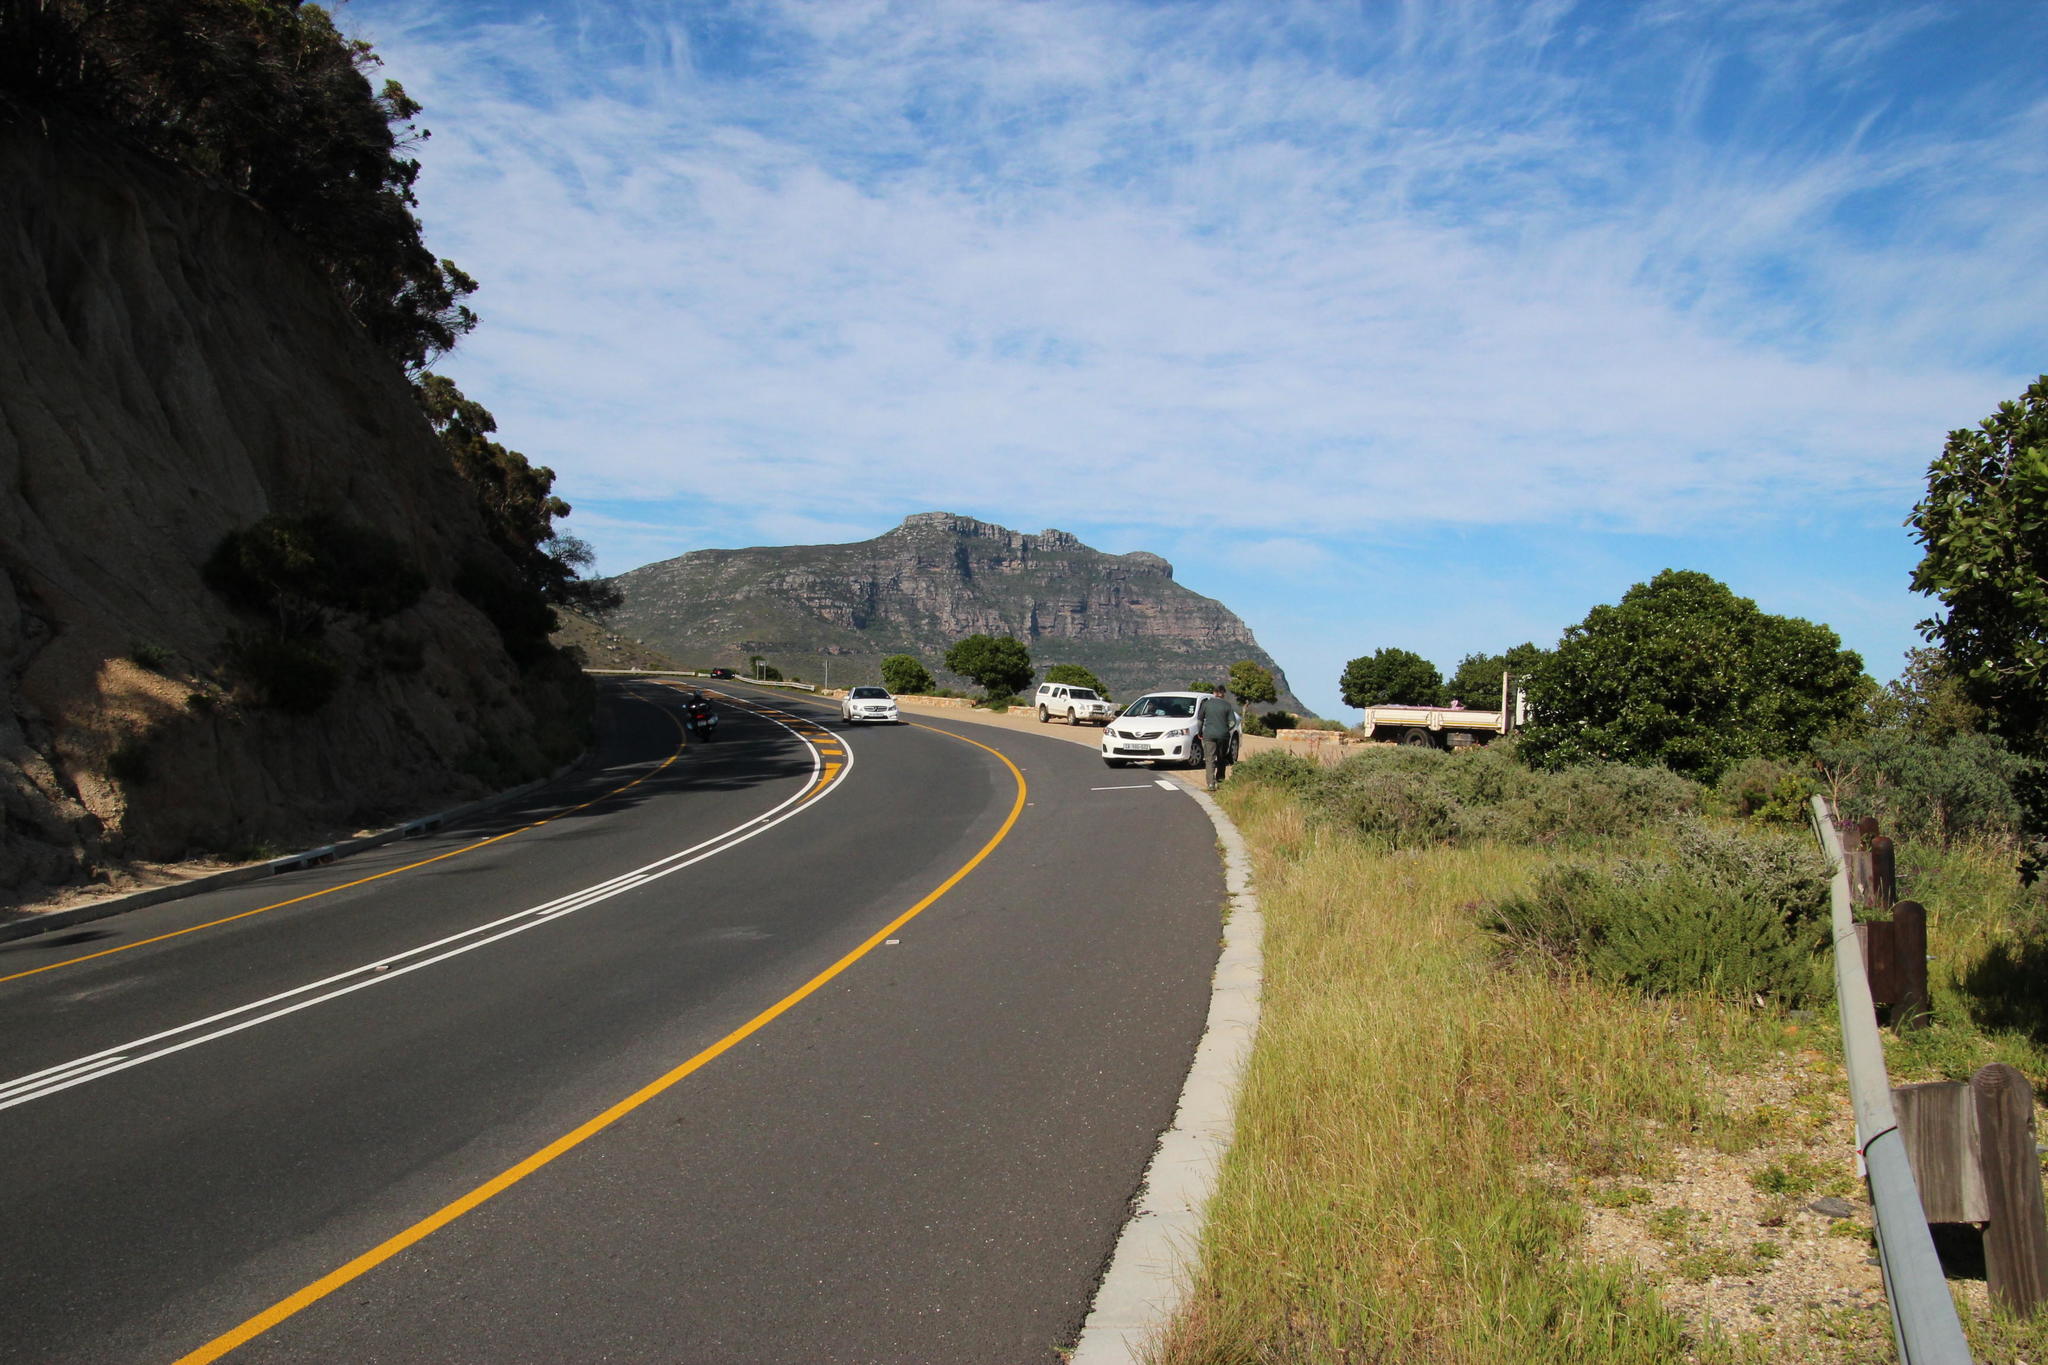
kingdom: Plantae
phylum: Tracheophyta
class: Magnoliopsida
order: Ericales
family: Sapotaceae
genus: Sideroxylon
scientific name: Sideroxylon inerme
